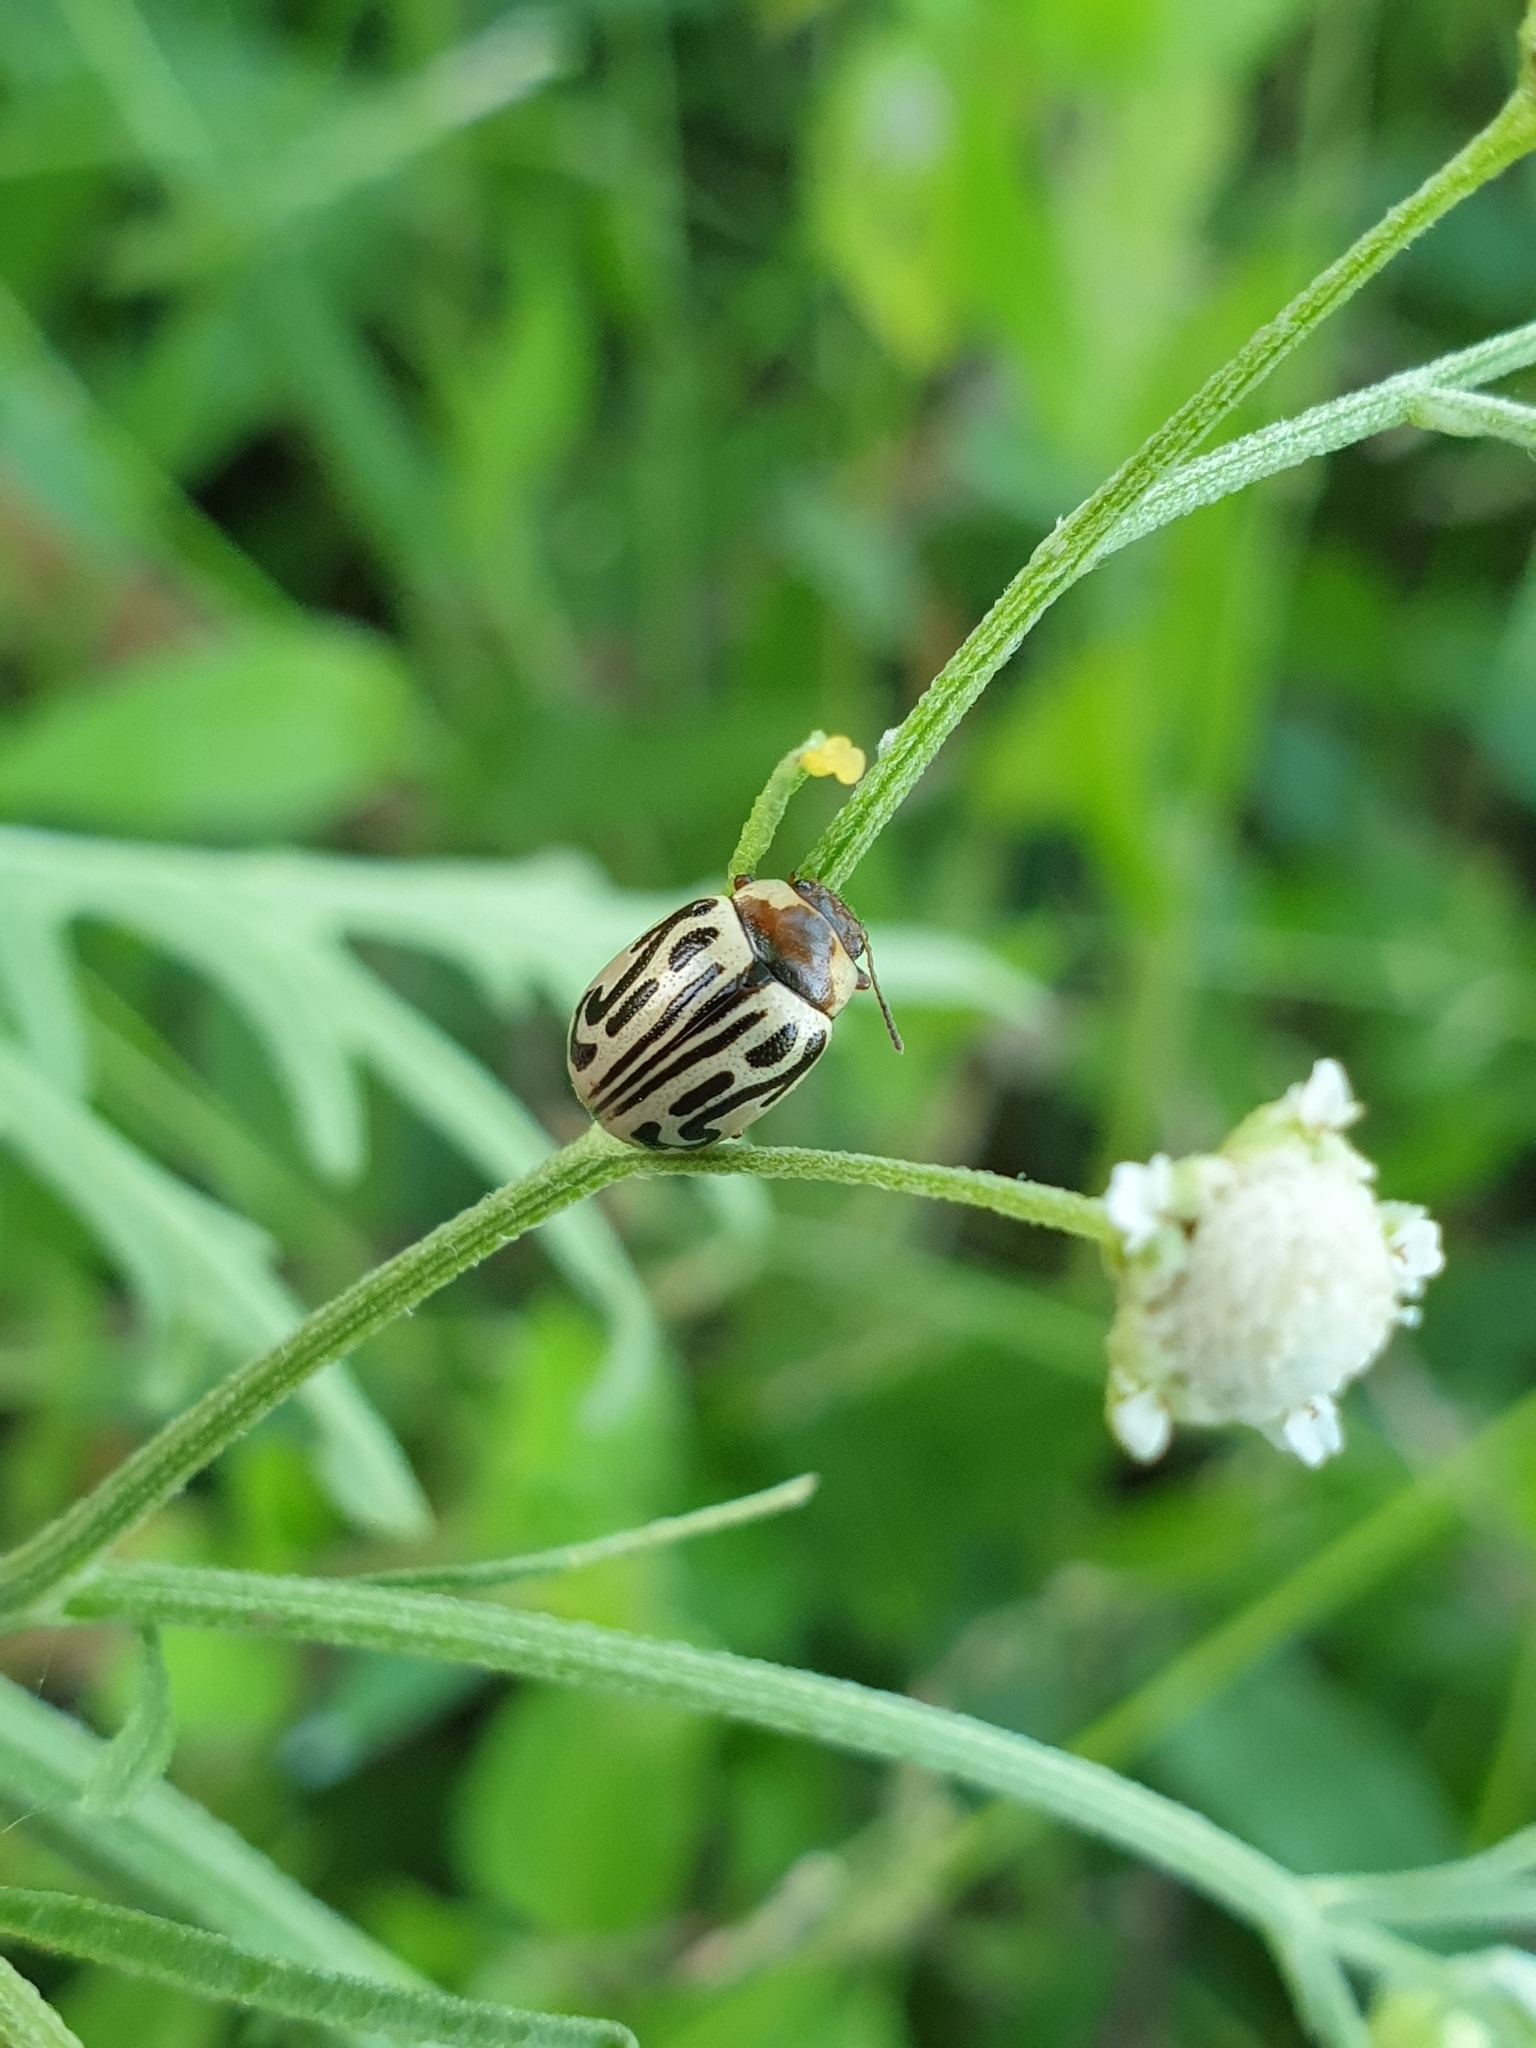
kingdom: Animalia
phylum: Arthropoda
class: Insecta
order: Coleoptera
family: Chrysomelidae
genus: Calligrapha
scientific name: Calligrapha
